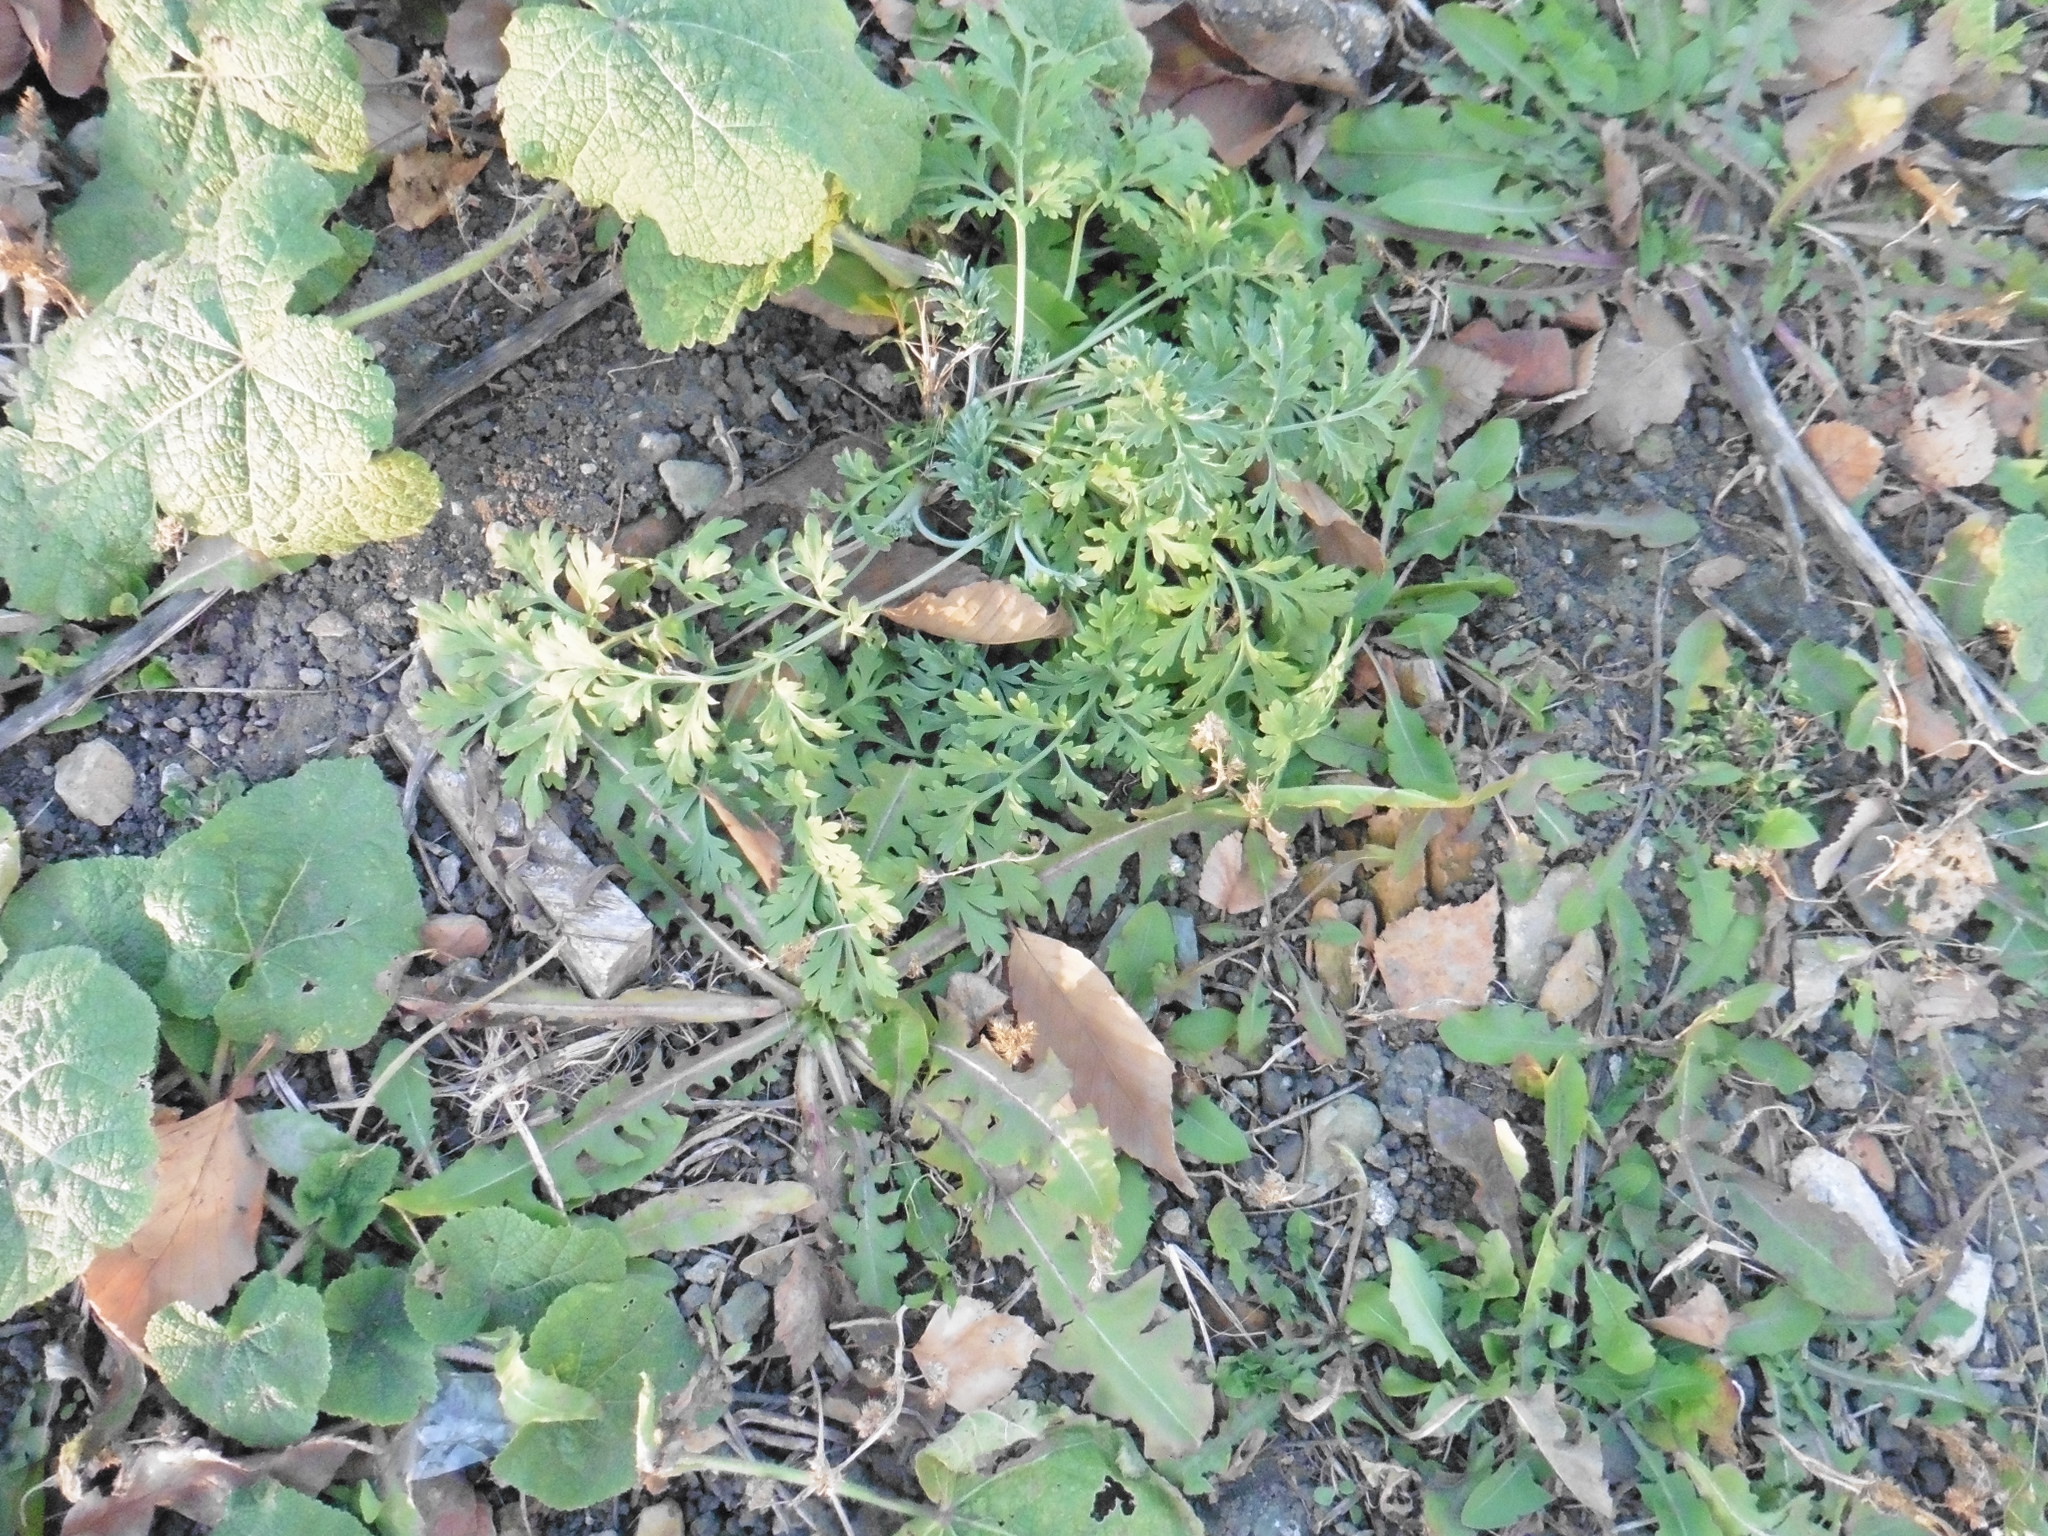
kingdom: Plantae
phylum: Tracheophyta
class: Magnoliopsida
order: Asterales
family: Asteraceae
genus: Artemisia
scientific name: Artemisia absinthium
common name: Wormwood
